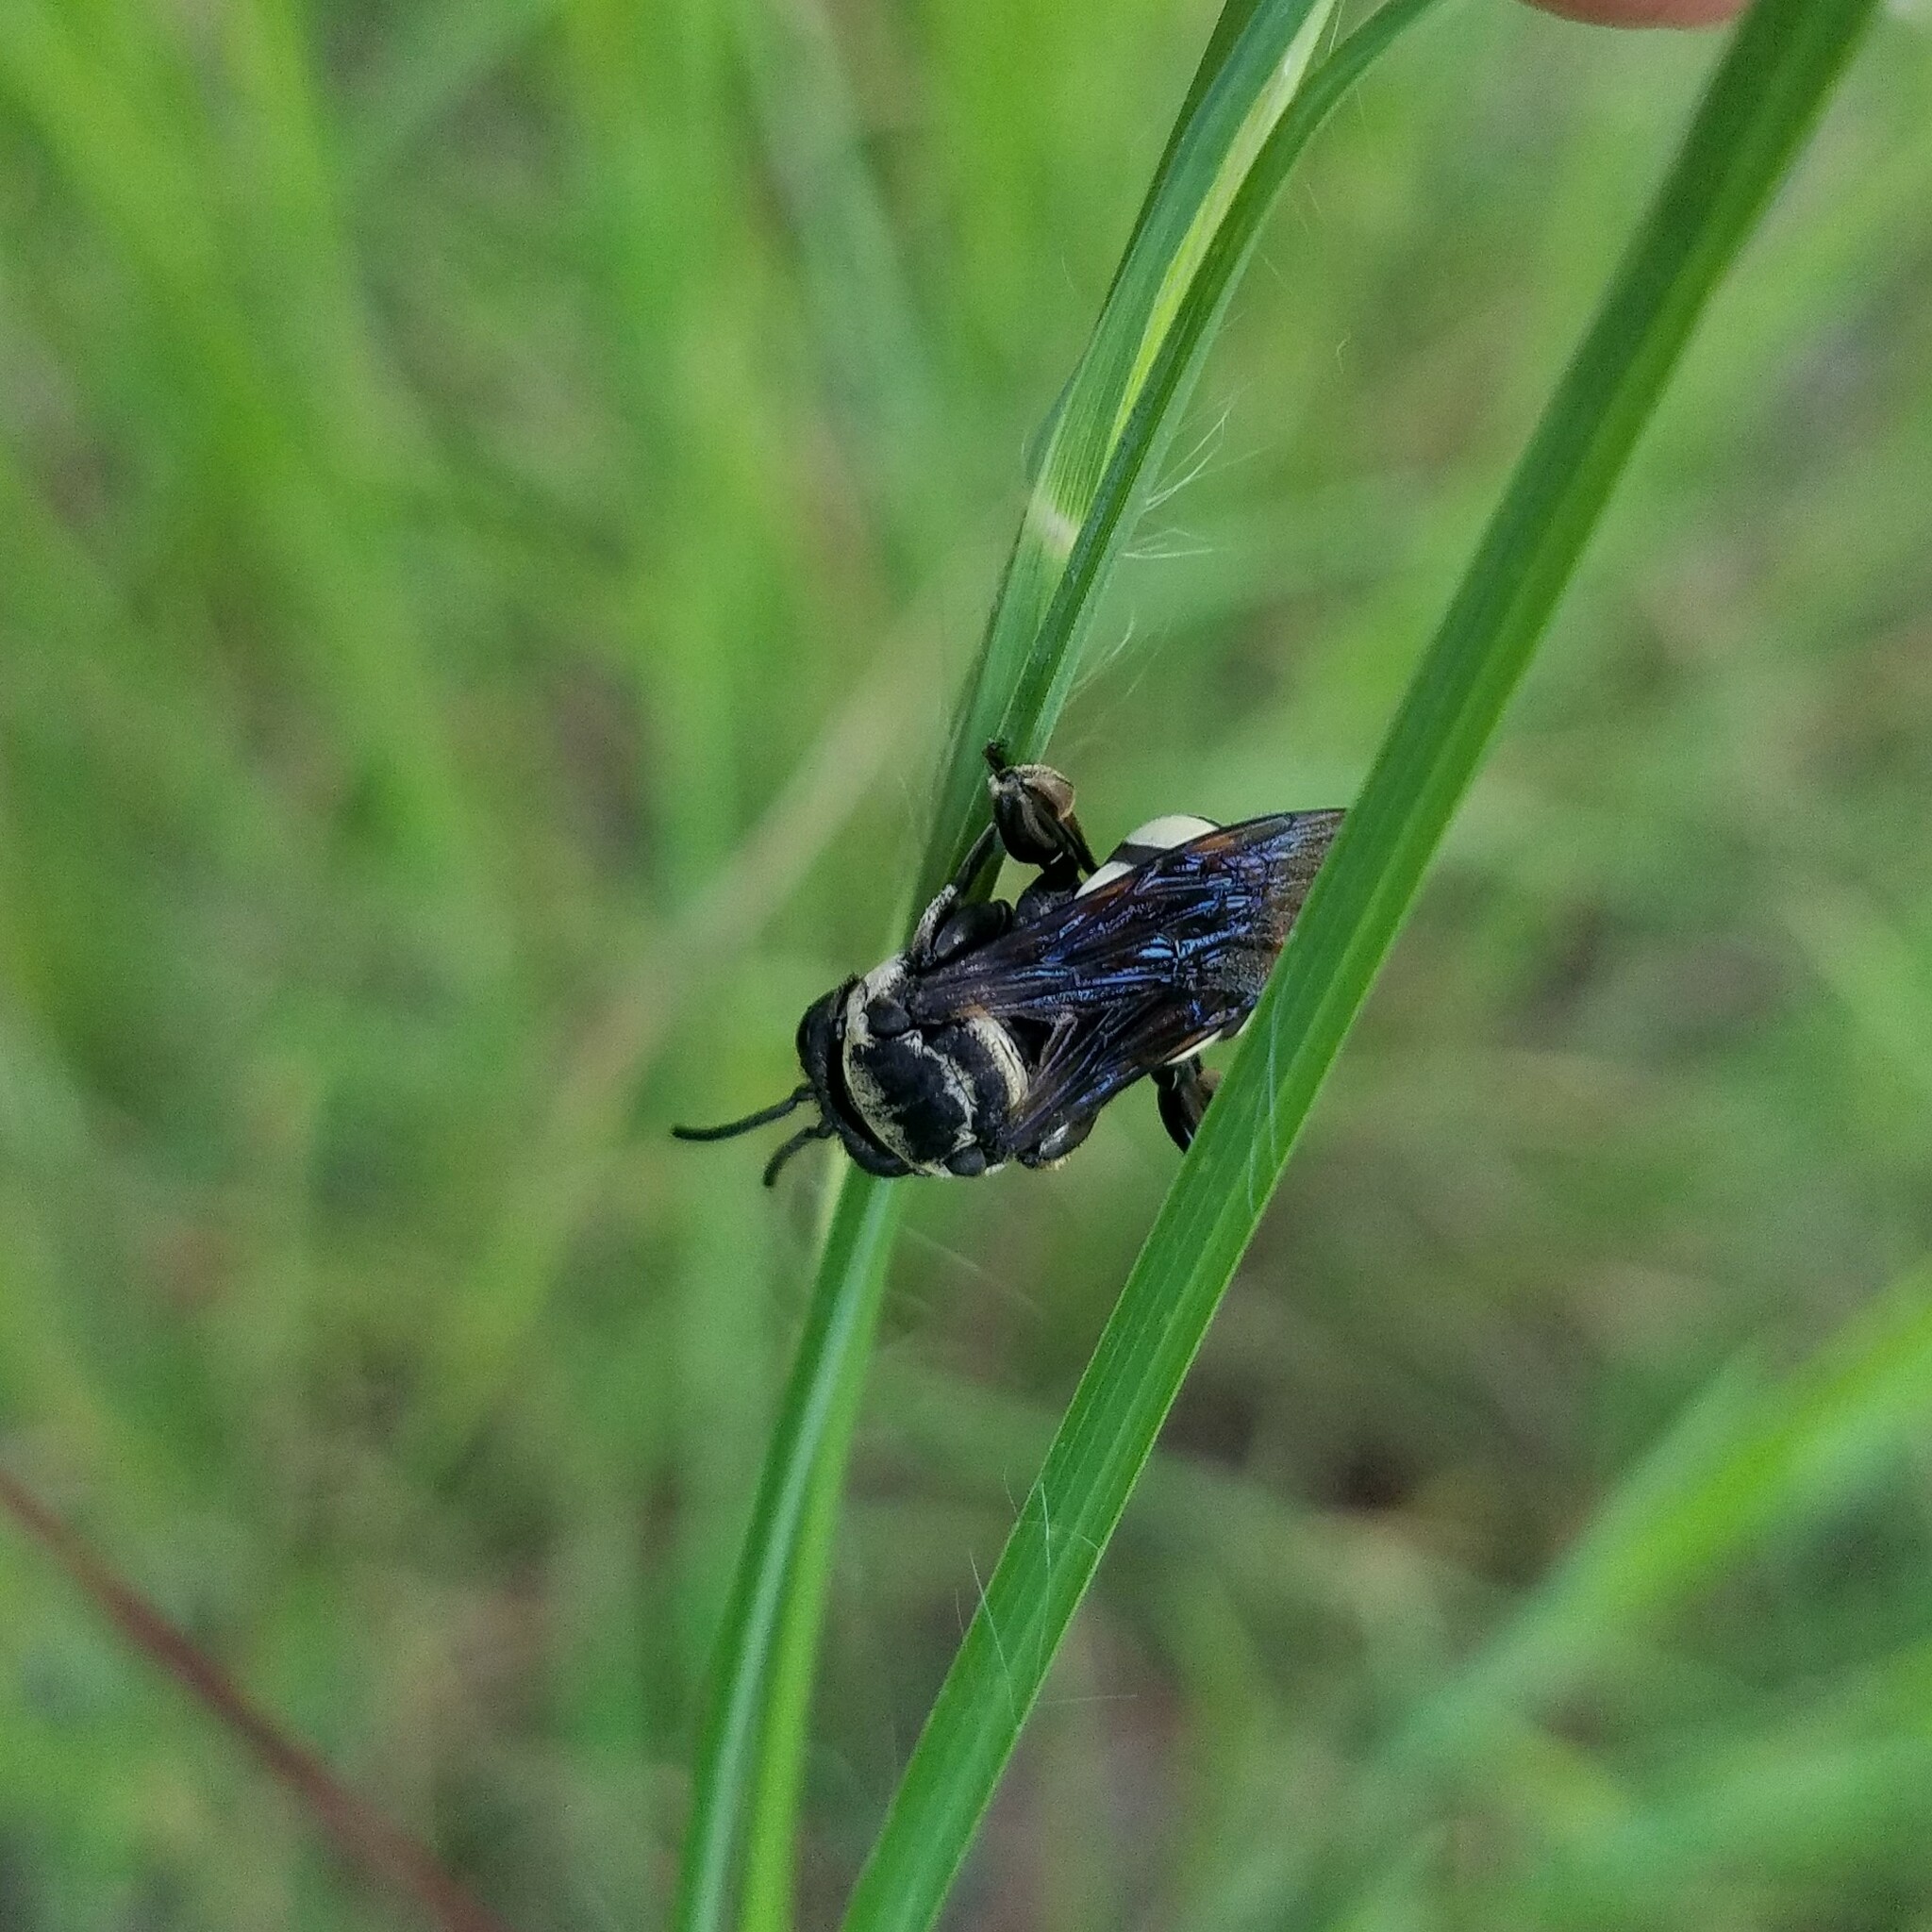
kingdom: Animalia
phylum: Arthropoda
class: Insecta
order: Hymenoptera
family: Apidae
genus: Triepeolus
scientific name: Triepeolus concavus
